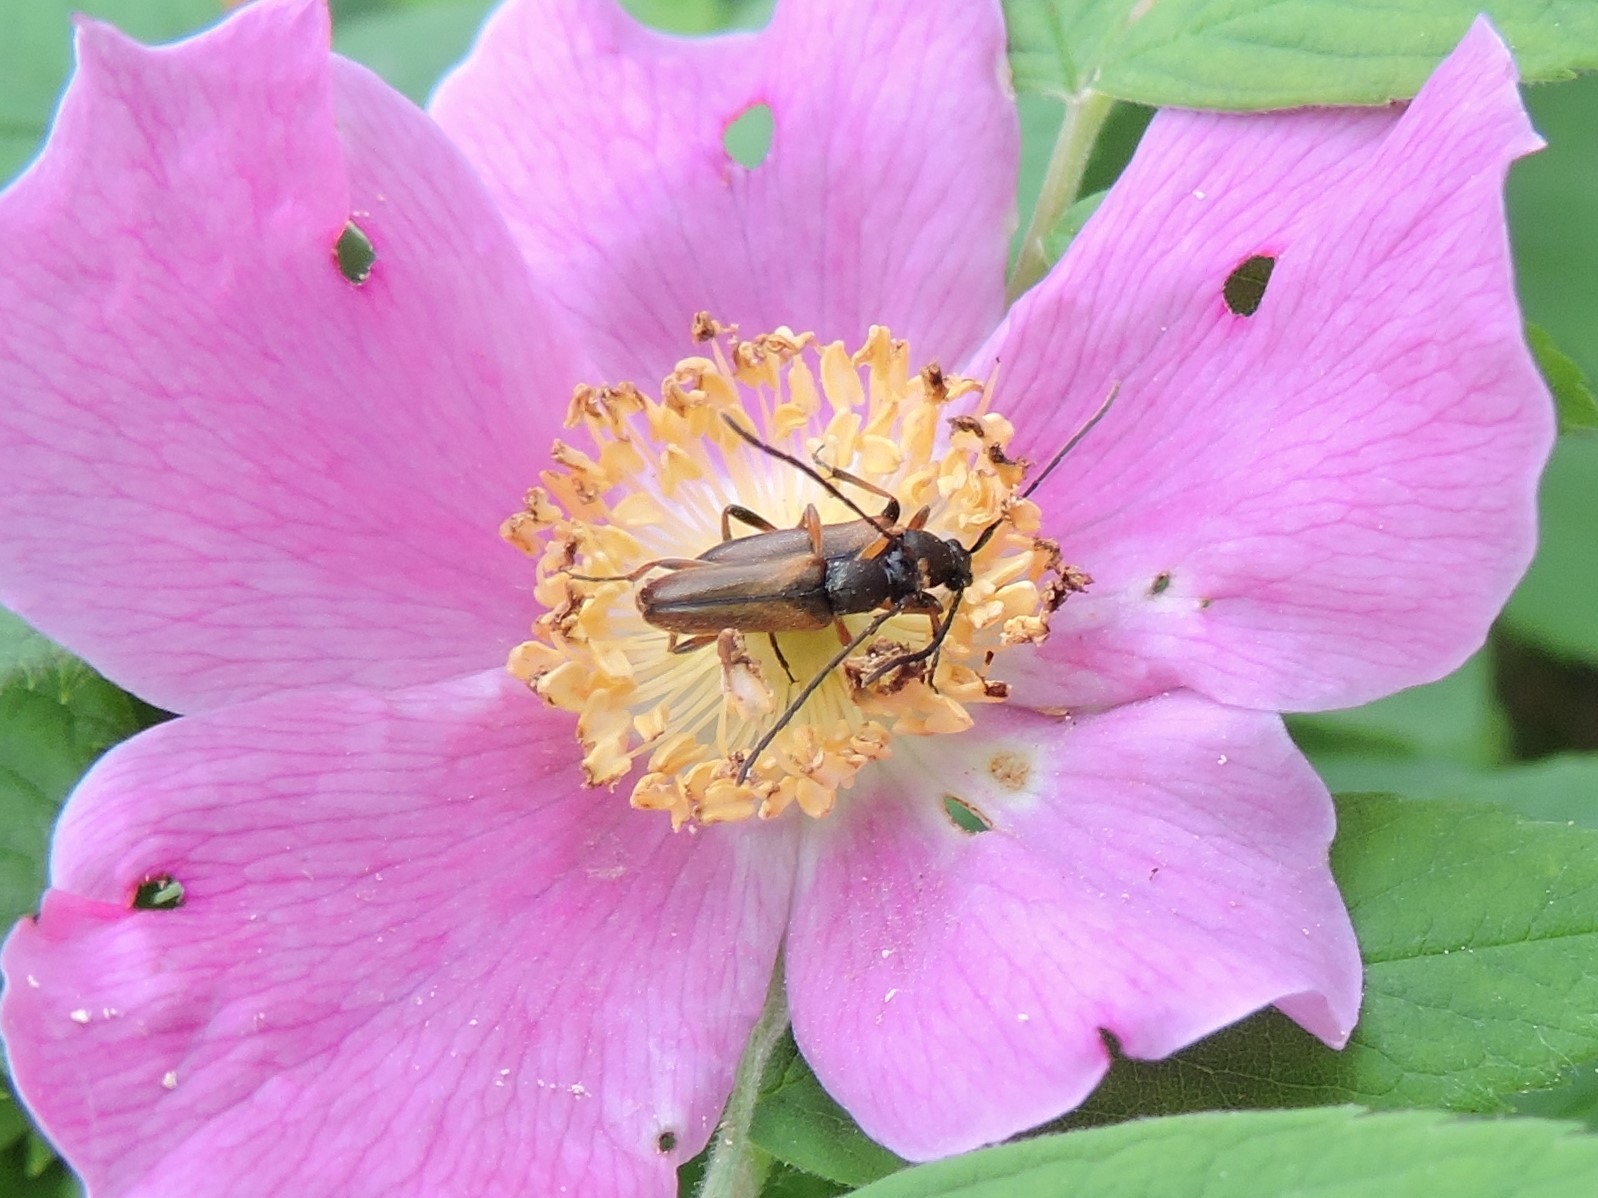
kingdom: Animalia
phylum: Arthropoda
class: Insecta
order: Coleoptera
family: Cerambycidae
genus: Alosterna
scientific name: Alosterna tabacicolor
